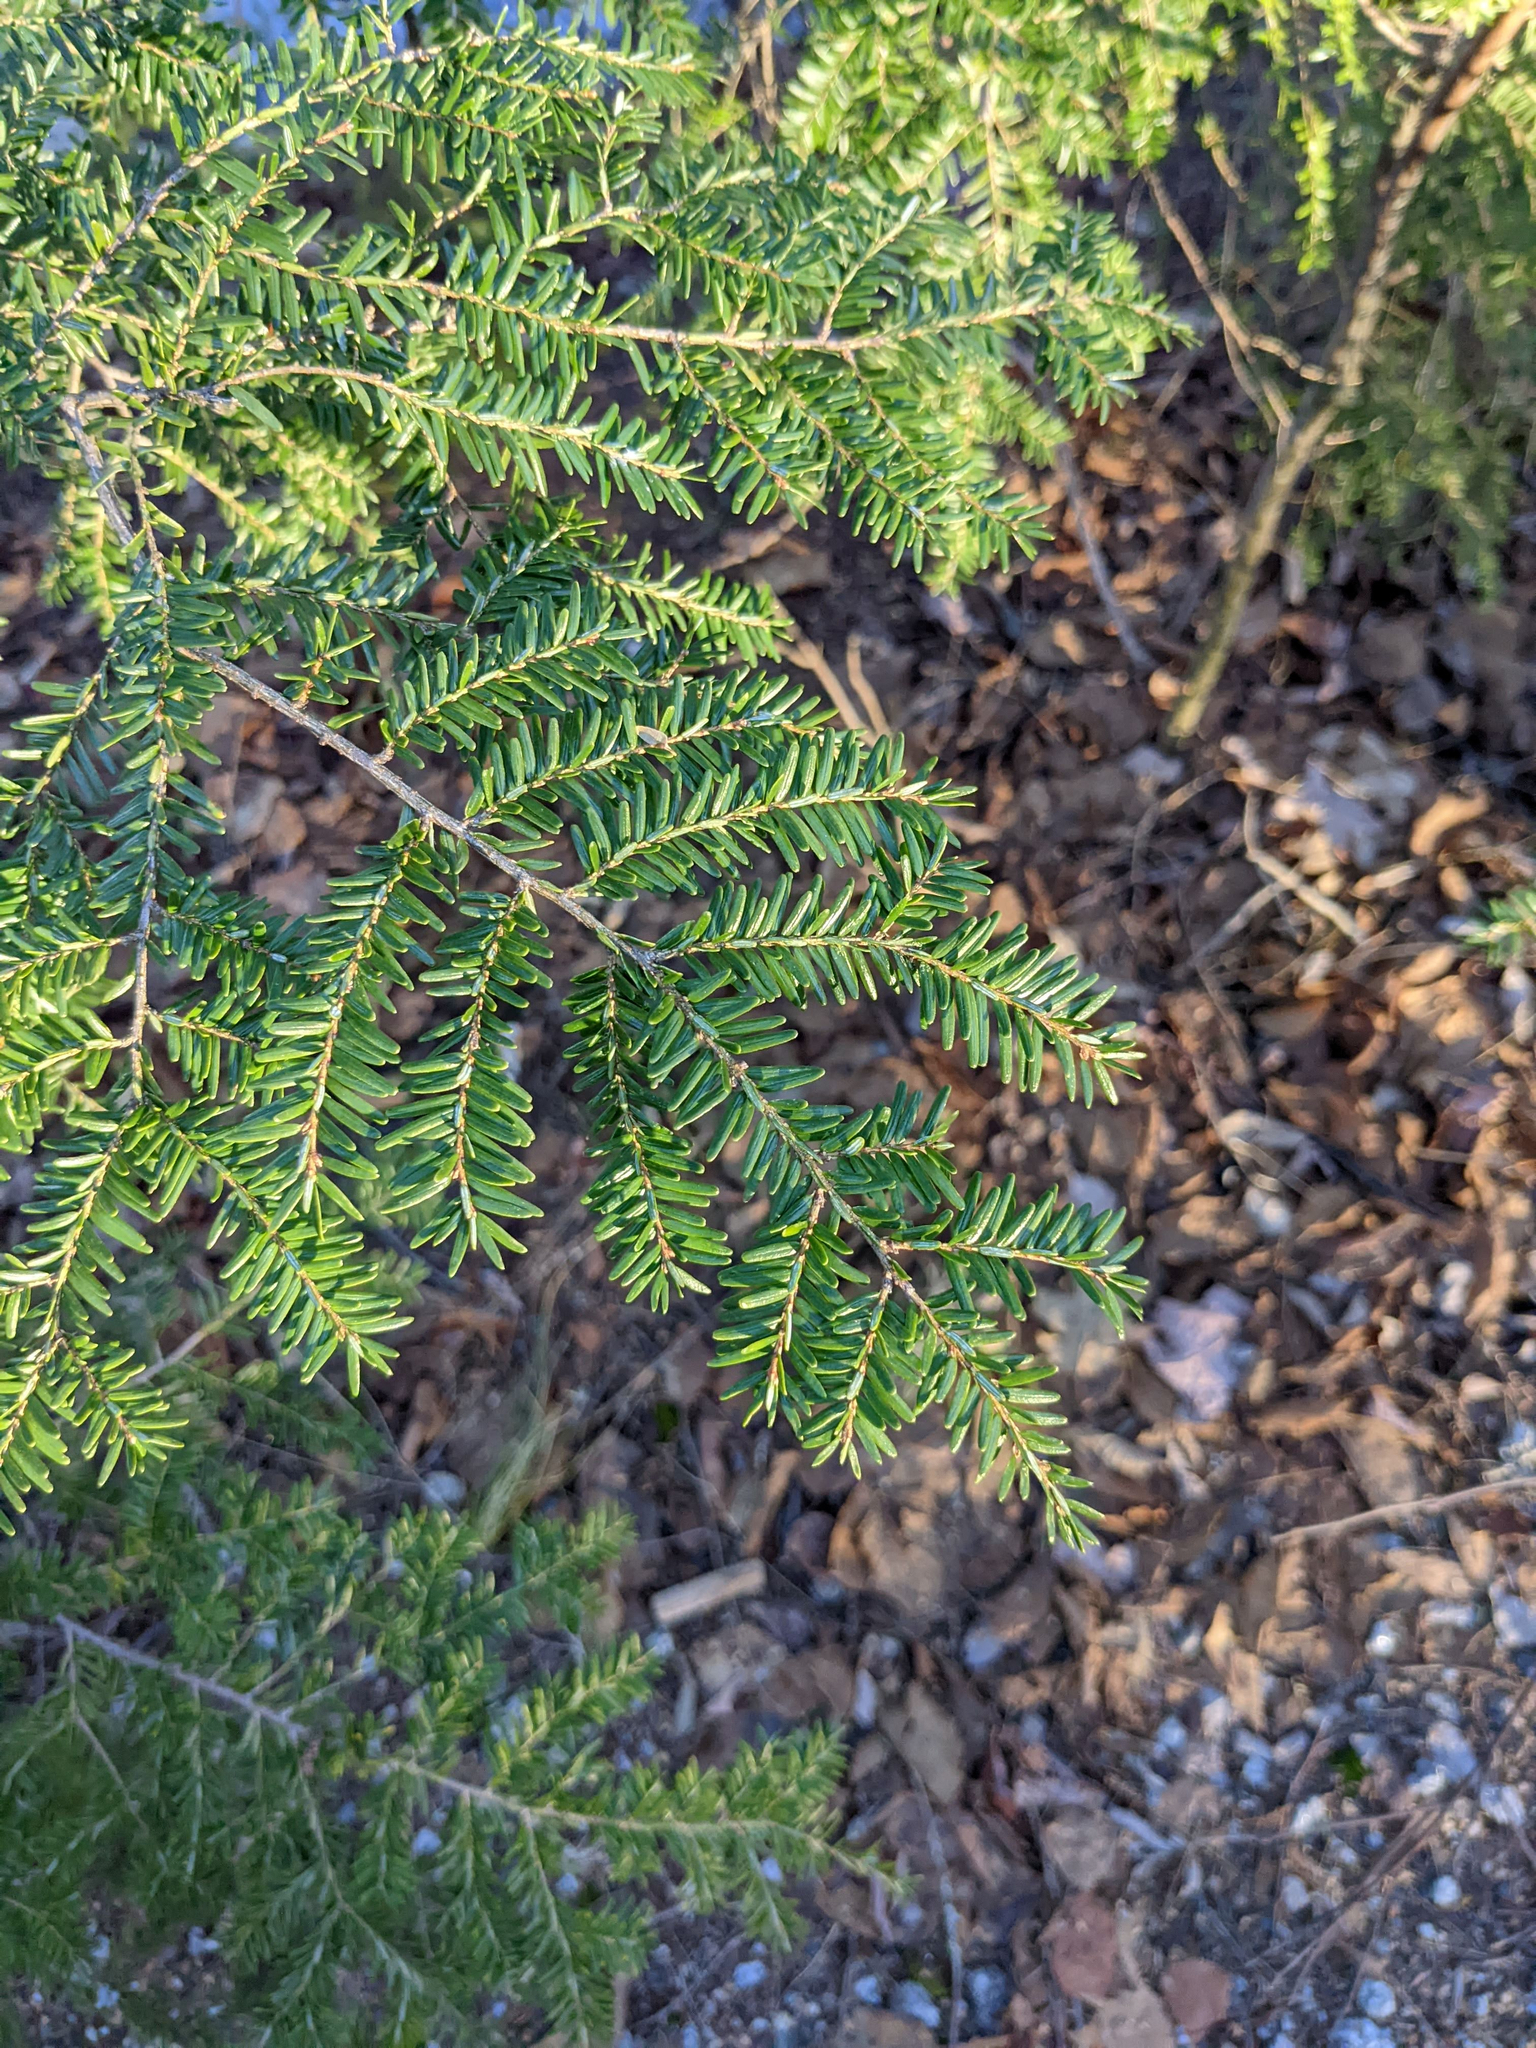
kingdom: Plantae
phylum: Tracheophyta
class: Pinopsida
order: Pinales
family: Pinaceae
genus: Tsuga
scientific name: Tsuga canadensis
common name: Eastern hemlock
